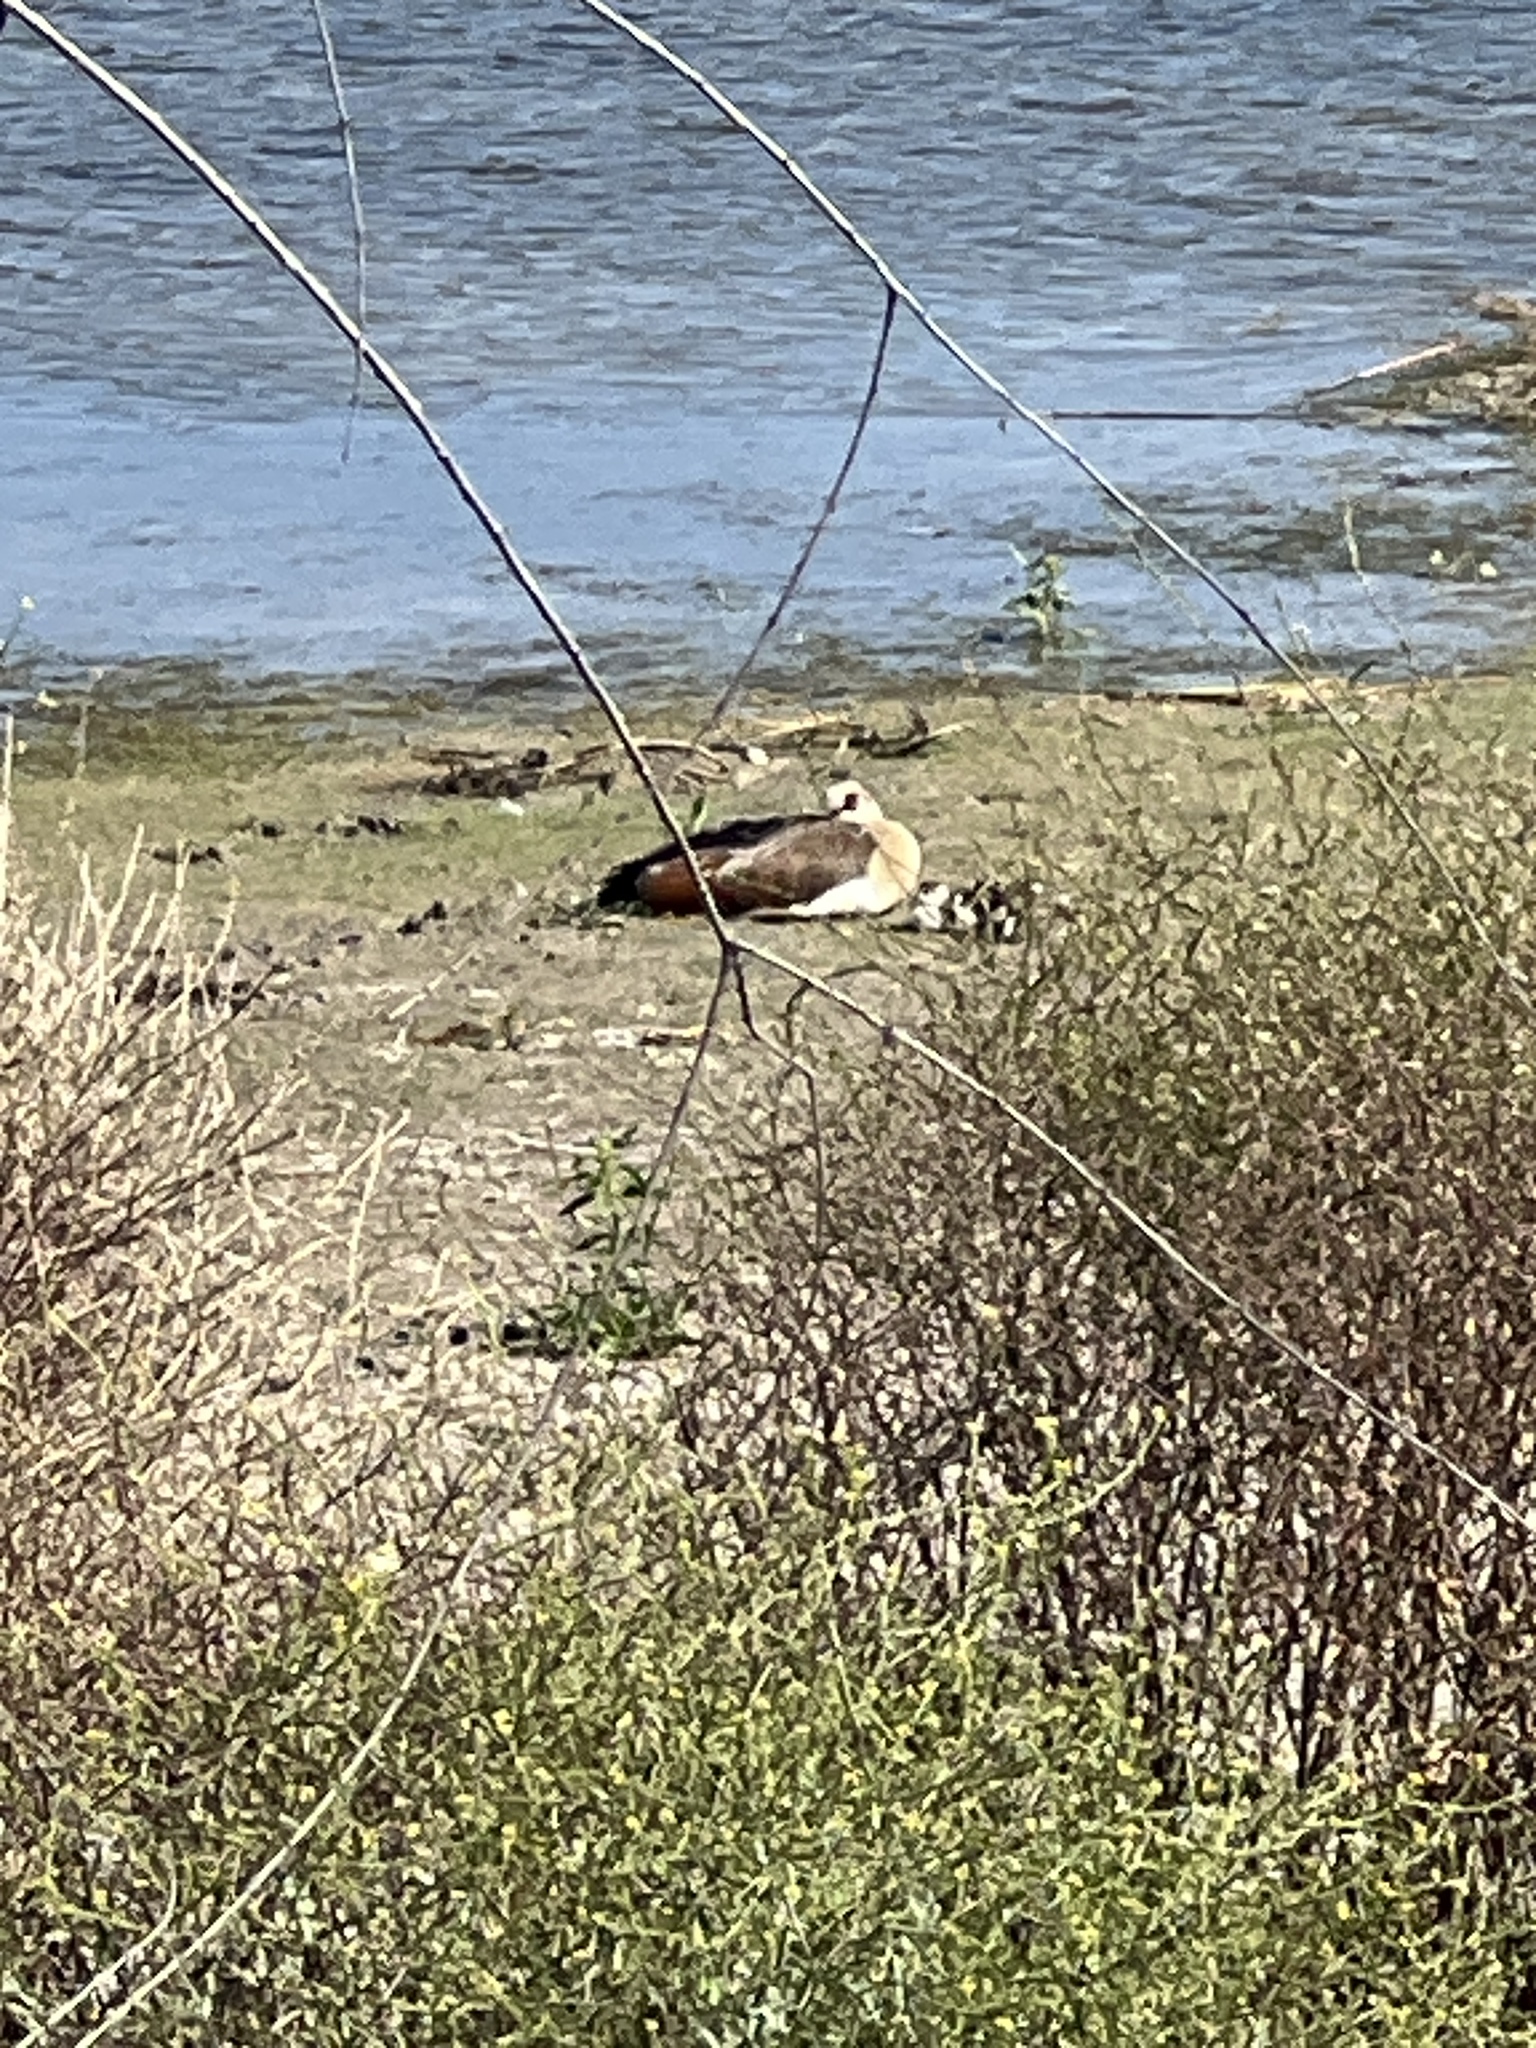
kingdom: Animalia
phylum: Chordata
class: Aves
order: Anseriformes
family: Anatidae
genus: Alopochen
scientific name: Alopochen aegyptiaca
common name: Egyptian goose
